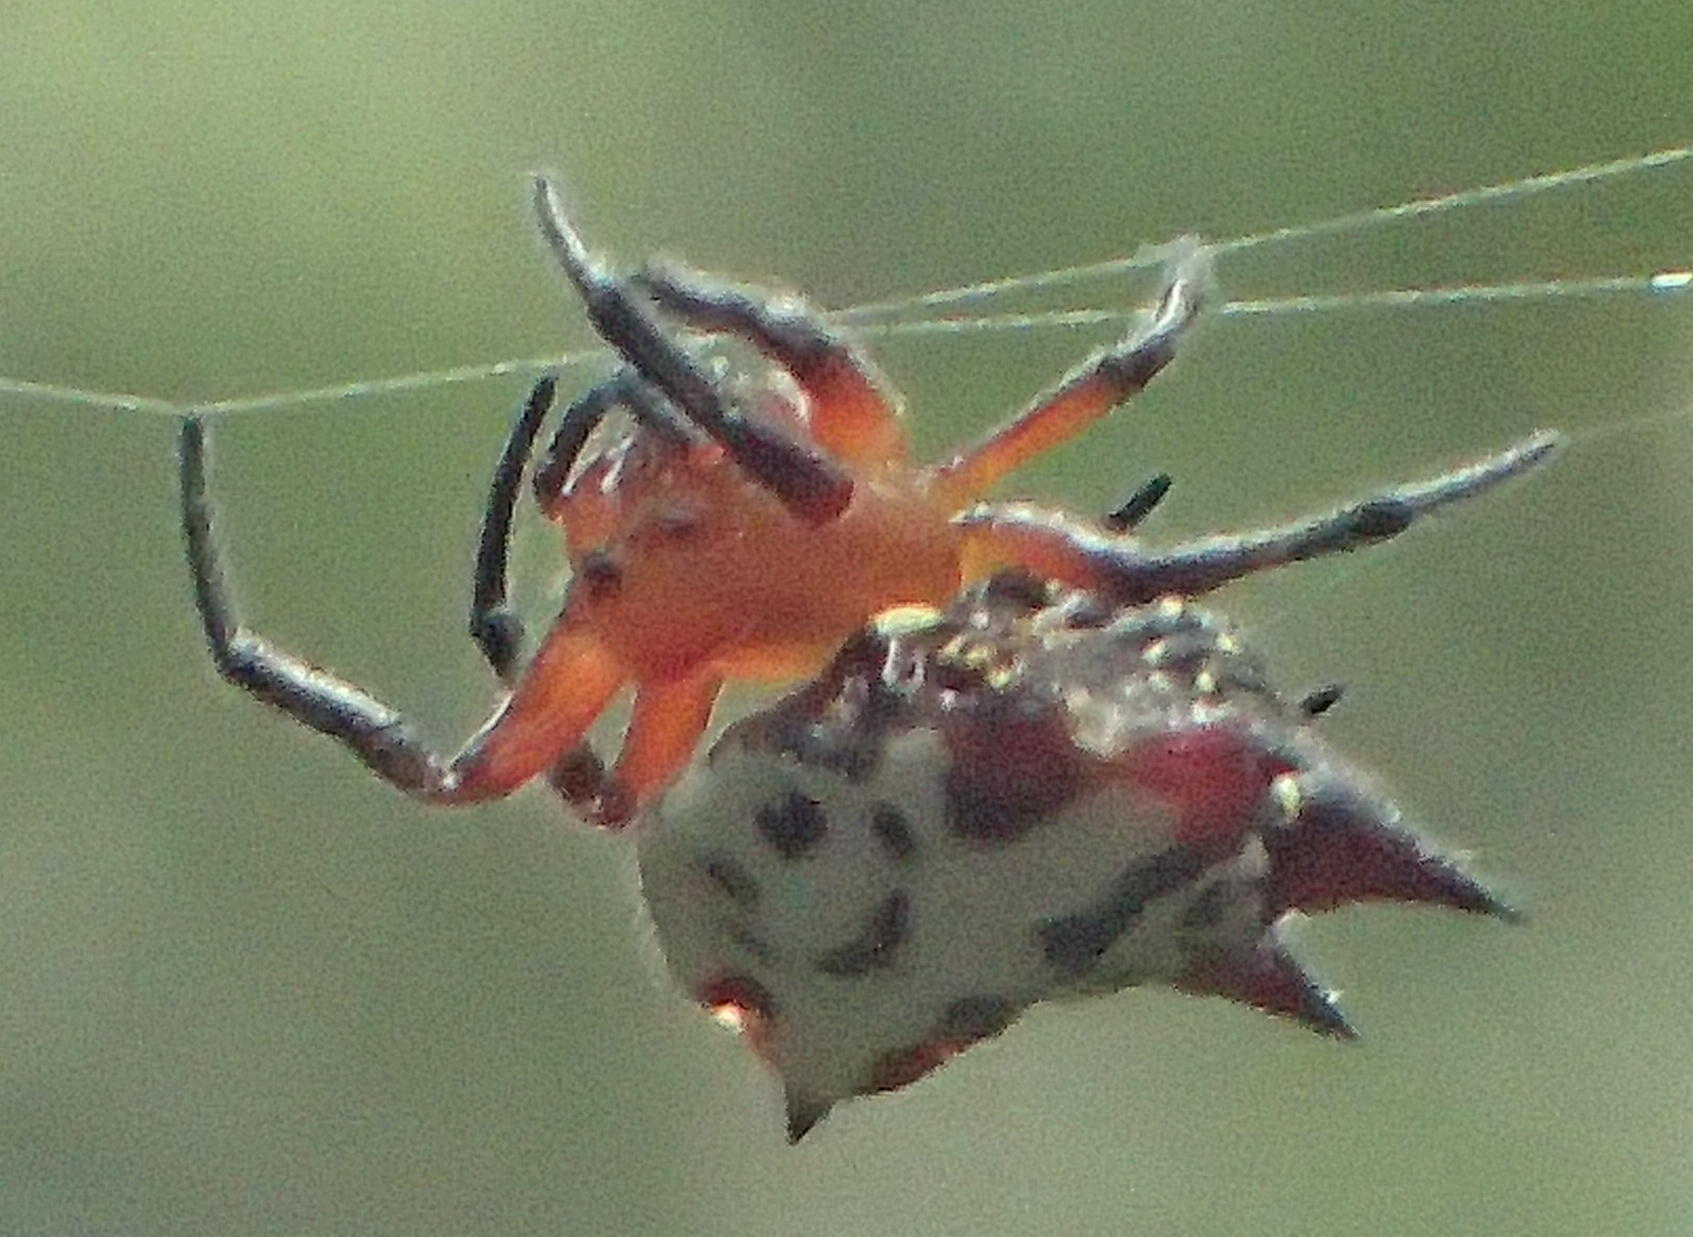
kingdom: Animalia
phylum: Arthropoda
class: Arachnida
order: Araneae
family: Araneidae
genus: Gasteracantha
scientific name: Gasteracantha sanguinolenta
